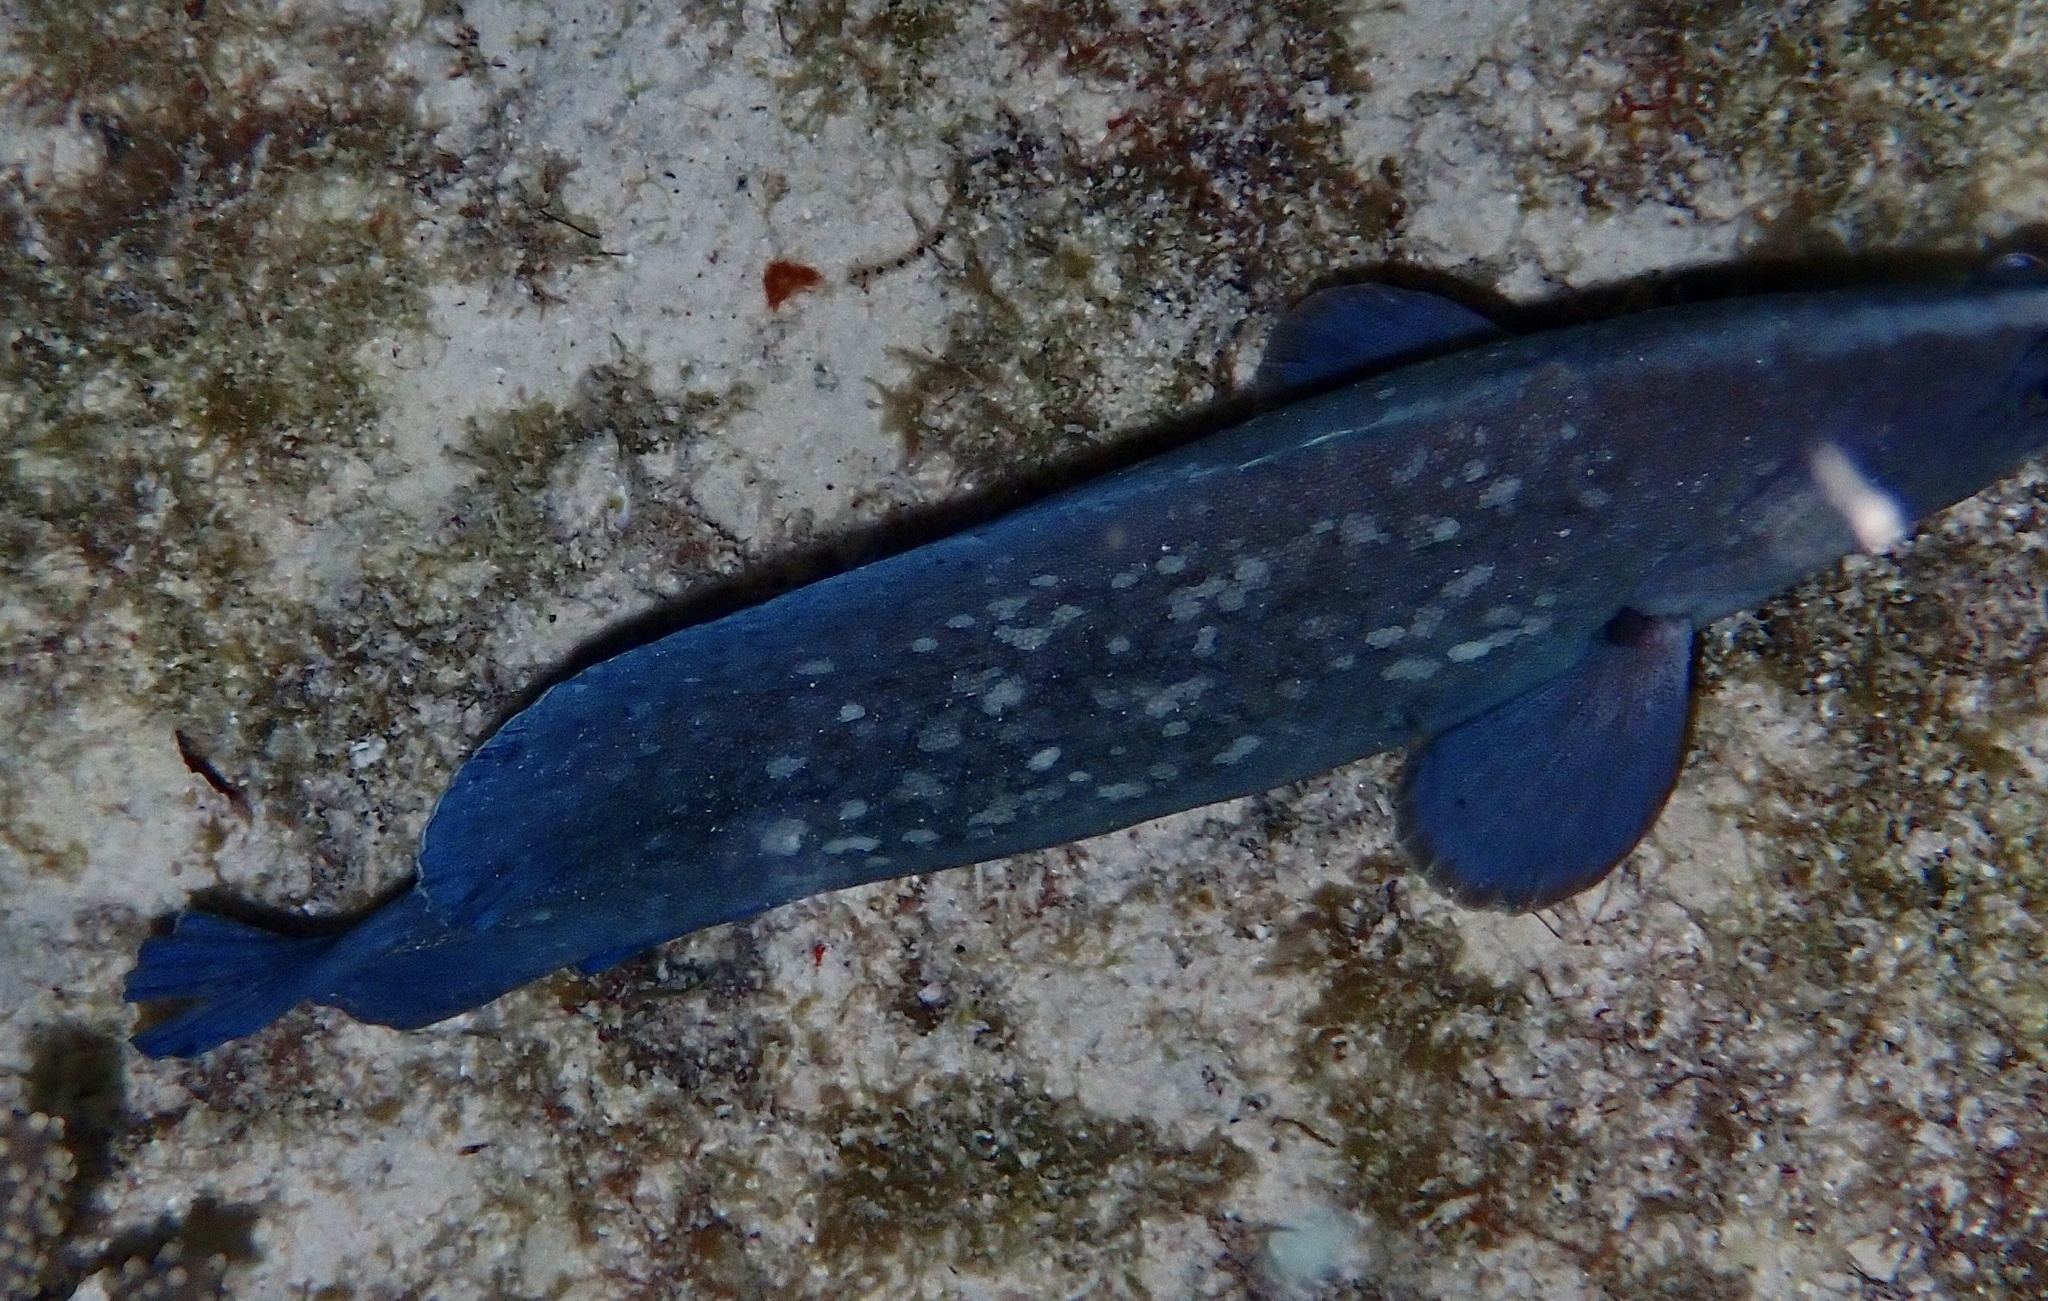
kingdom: Animalia
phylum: Chordata
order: Perciformes
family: Serranidae
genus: Rypticus
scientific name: Rypticus saponaceus
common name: Soapfish
